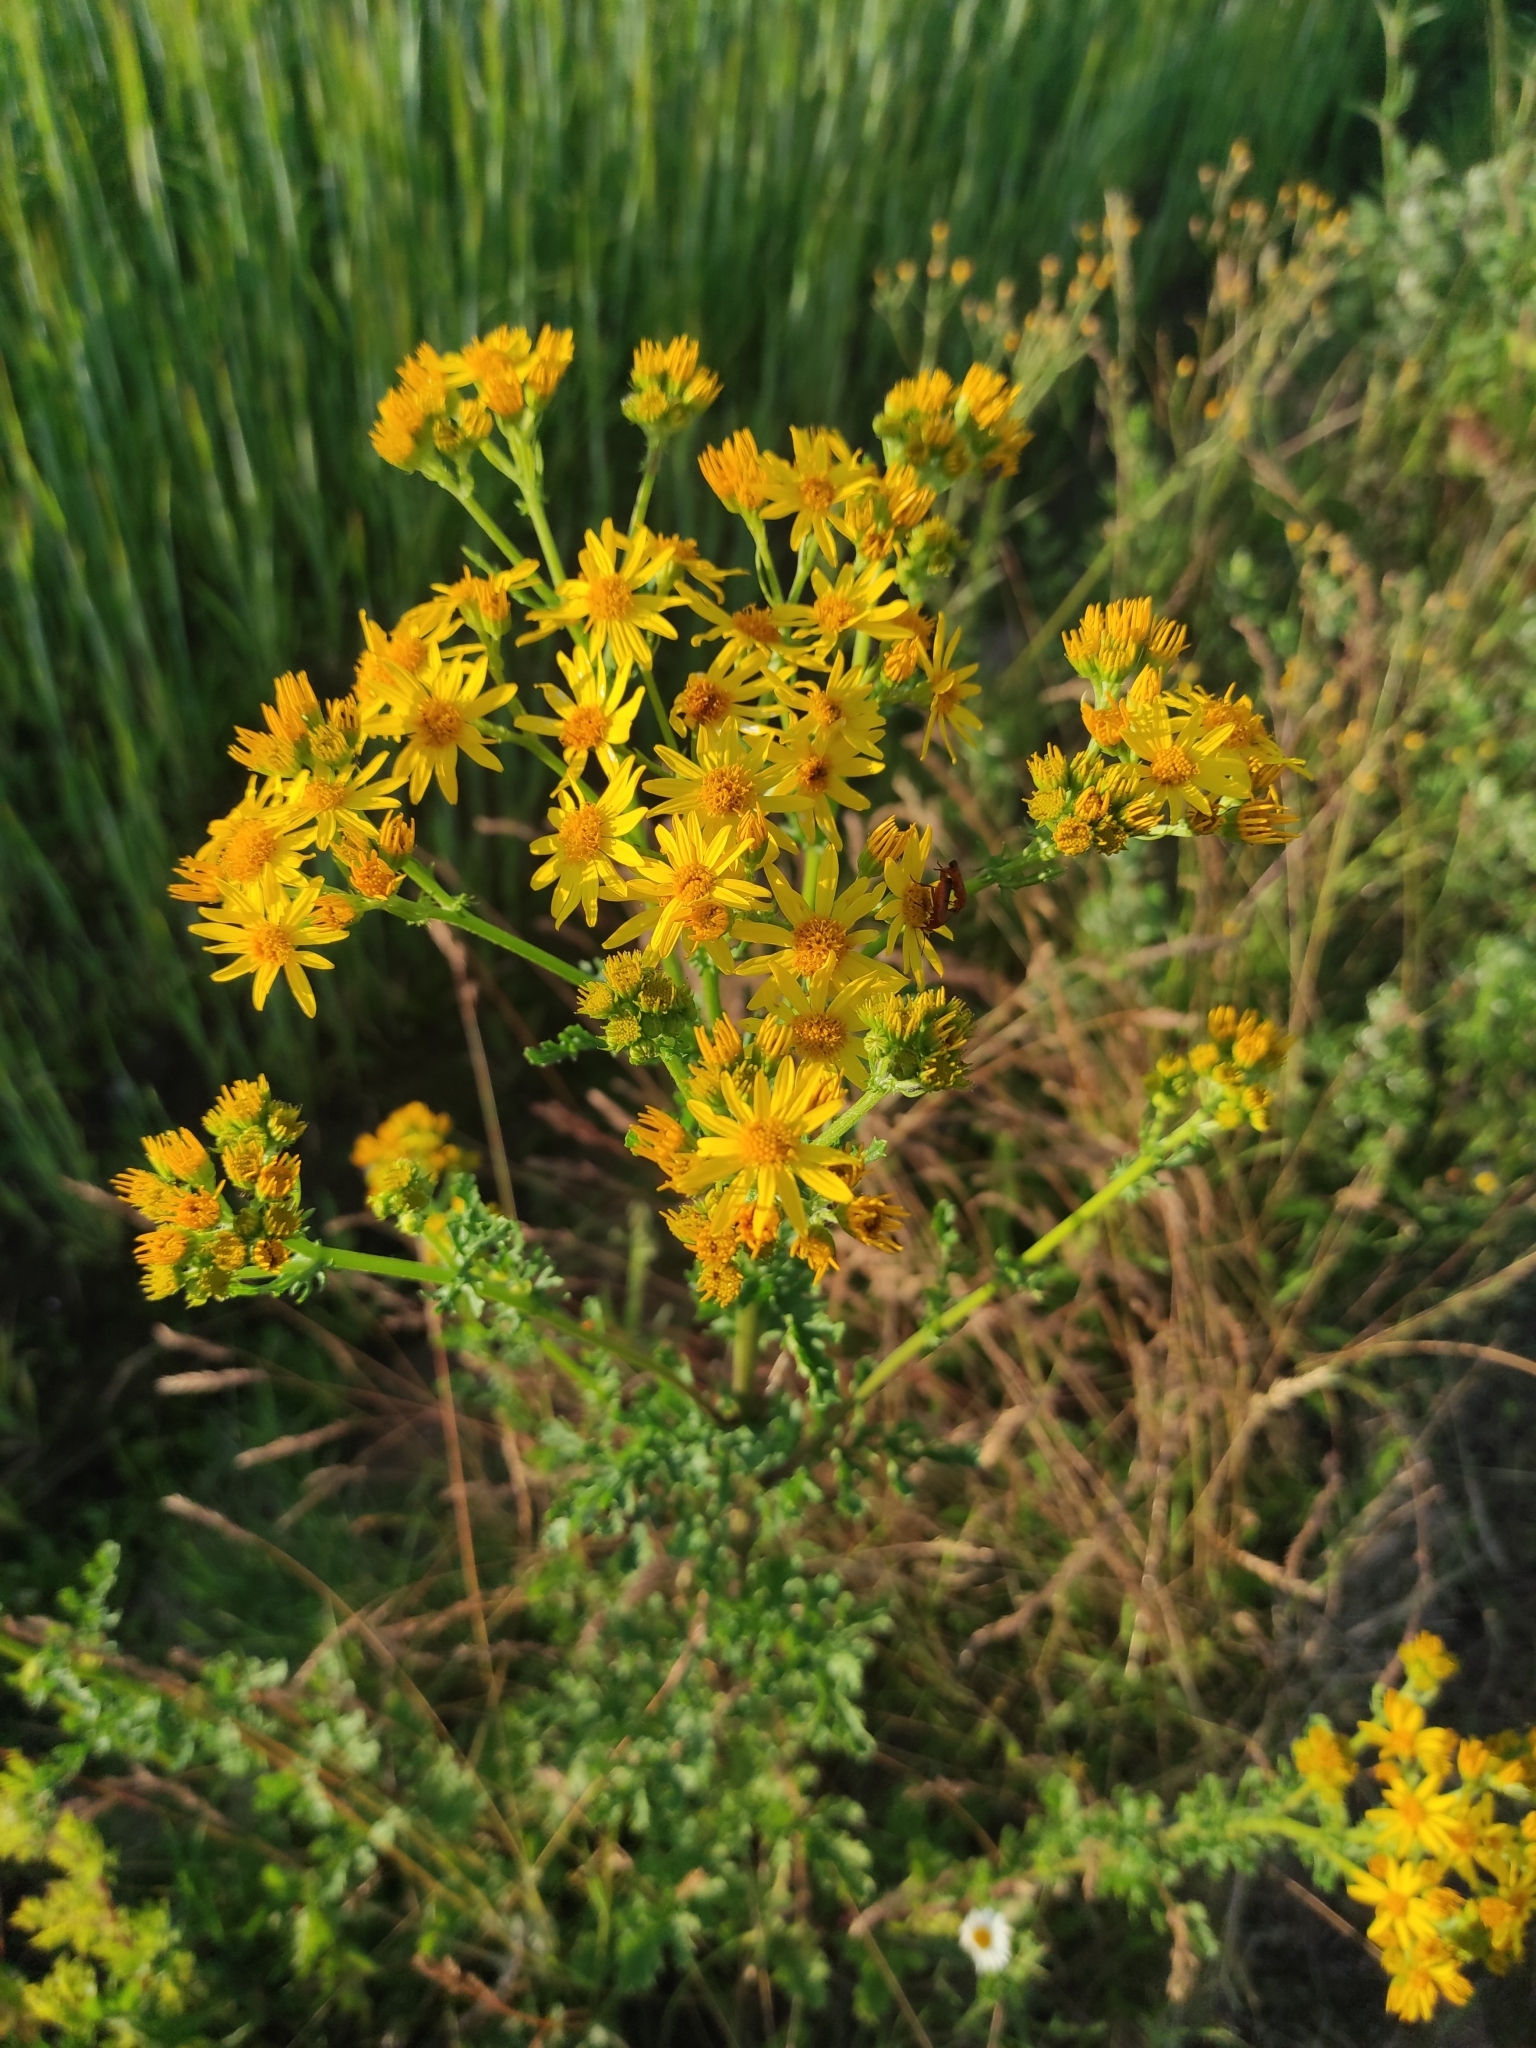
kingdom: Plantae
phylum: Tracheophyta
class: Magnoliopsida
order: Asterales
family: Asteraceae
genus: Jacobaea
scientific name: Jacobaea vulgaris
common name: Stinking willie
